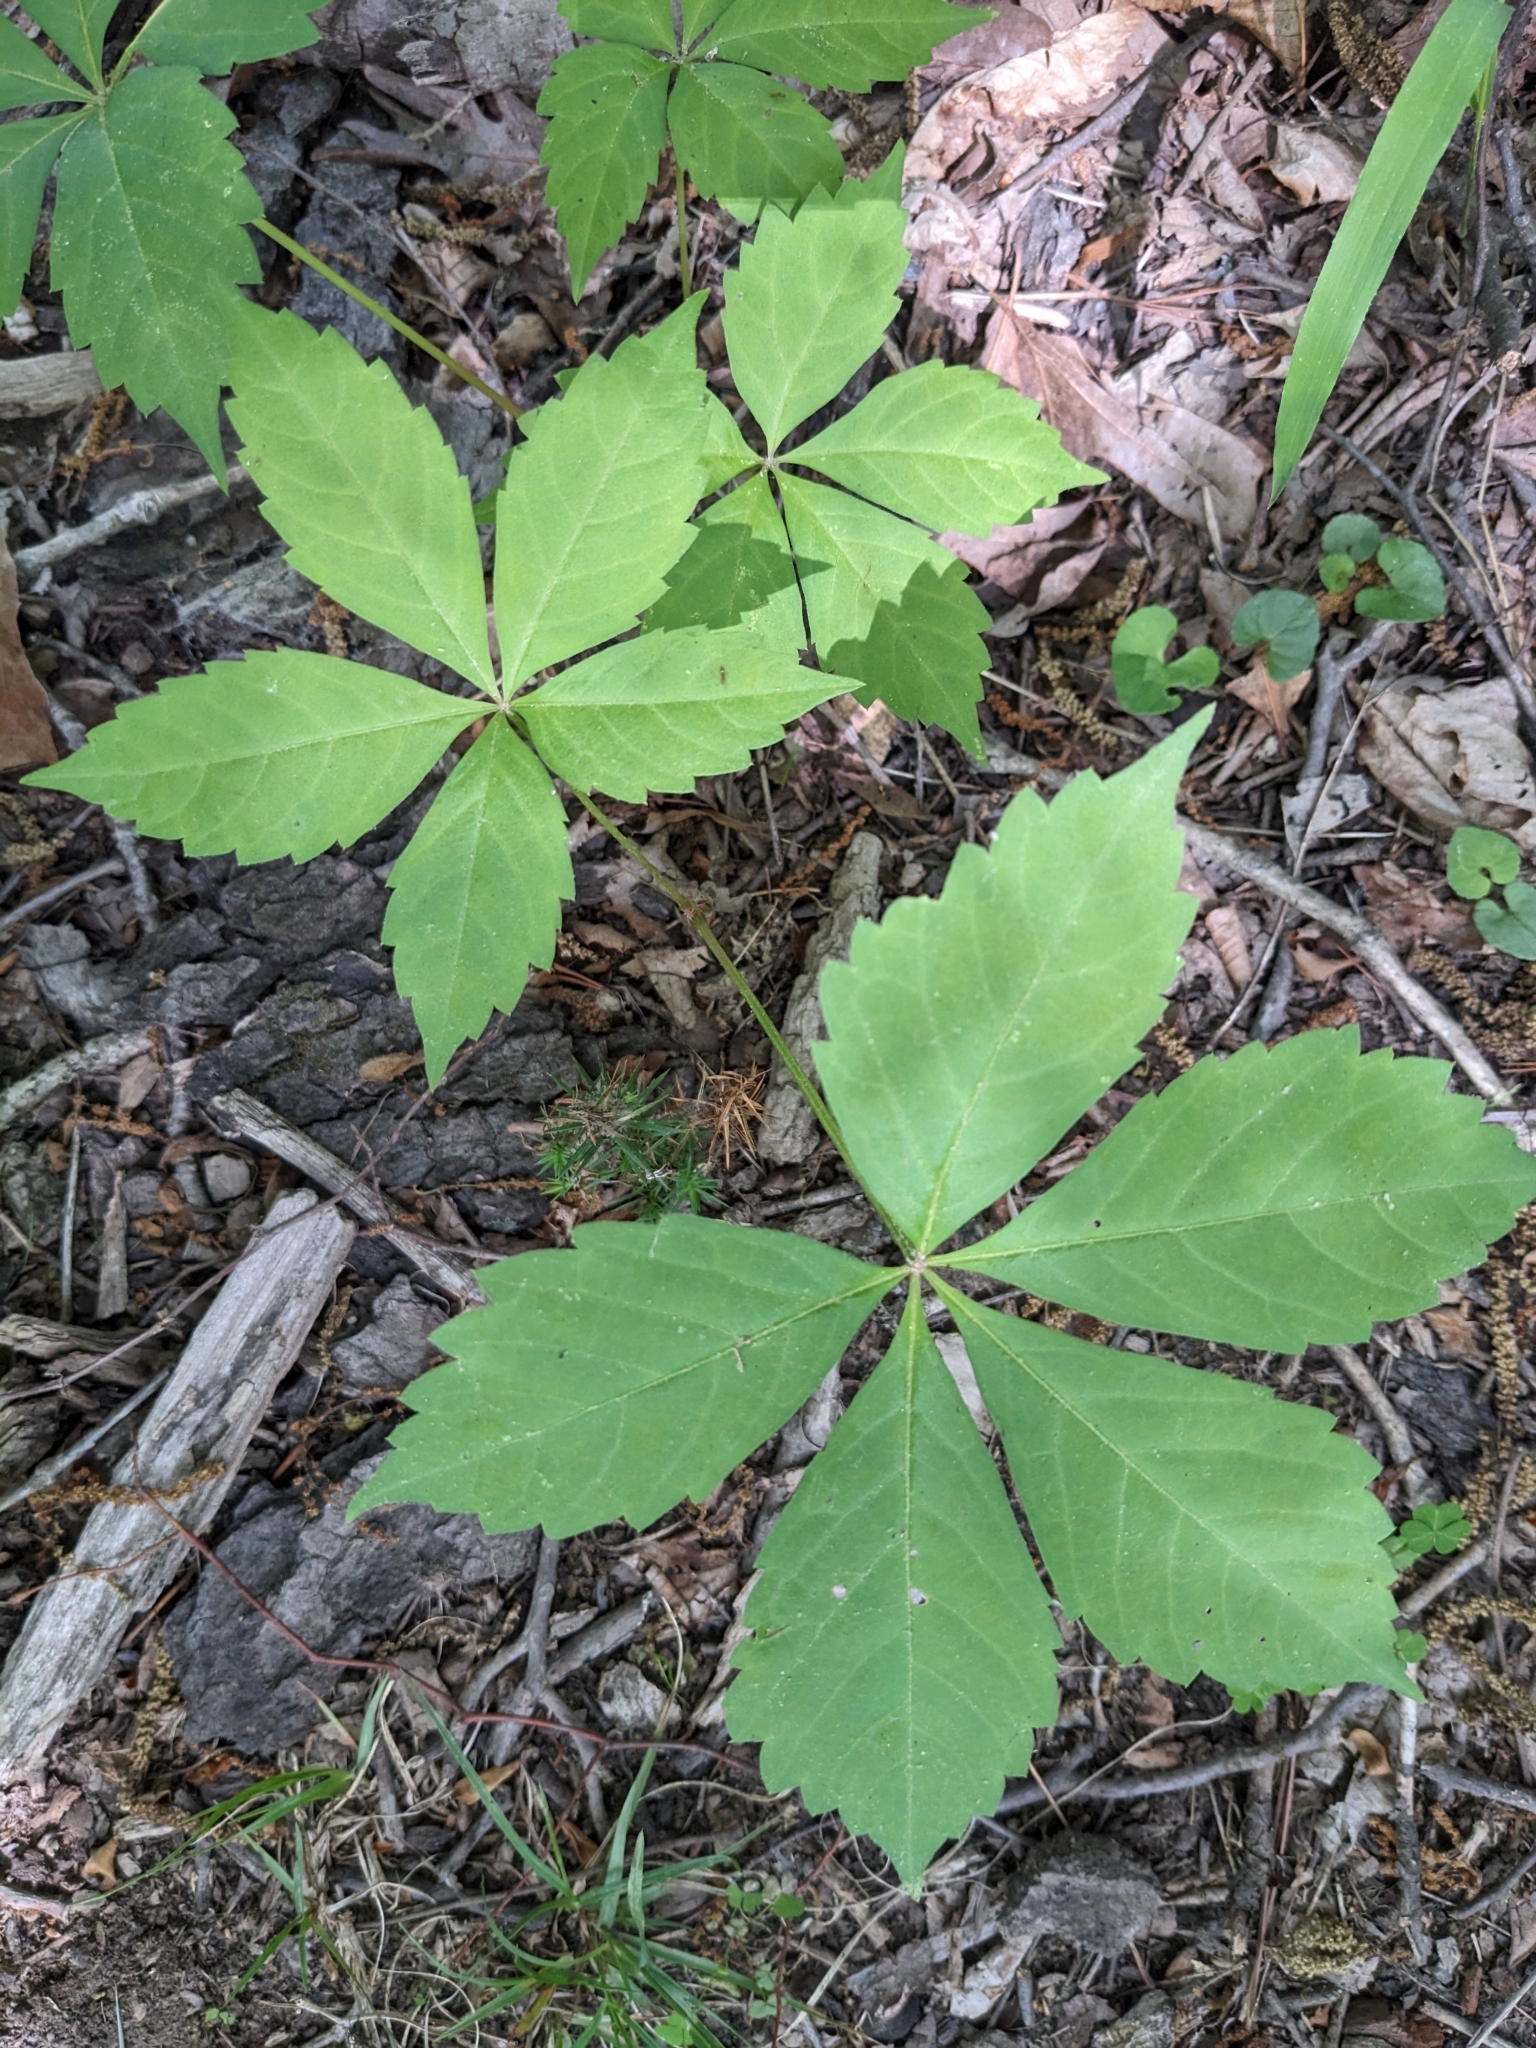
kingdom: Plantae
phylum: Tracheophyta
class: Magnoliopsida
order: Vitales
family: Vitaceae
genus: Parthenocissus
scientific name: Parthenocissus quinquefolia
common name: Virginia-creeper
